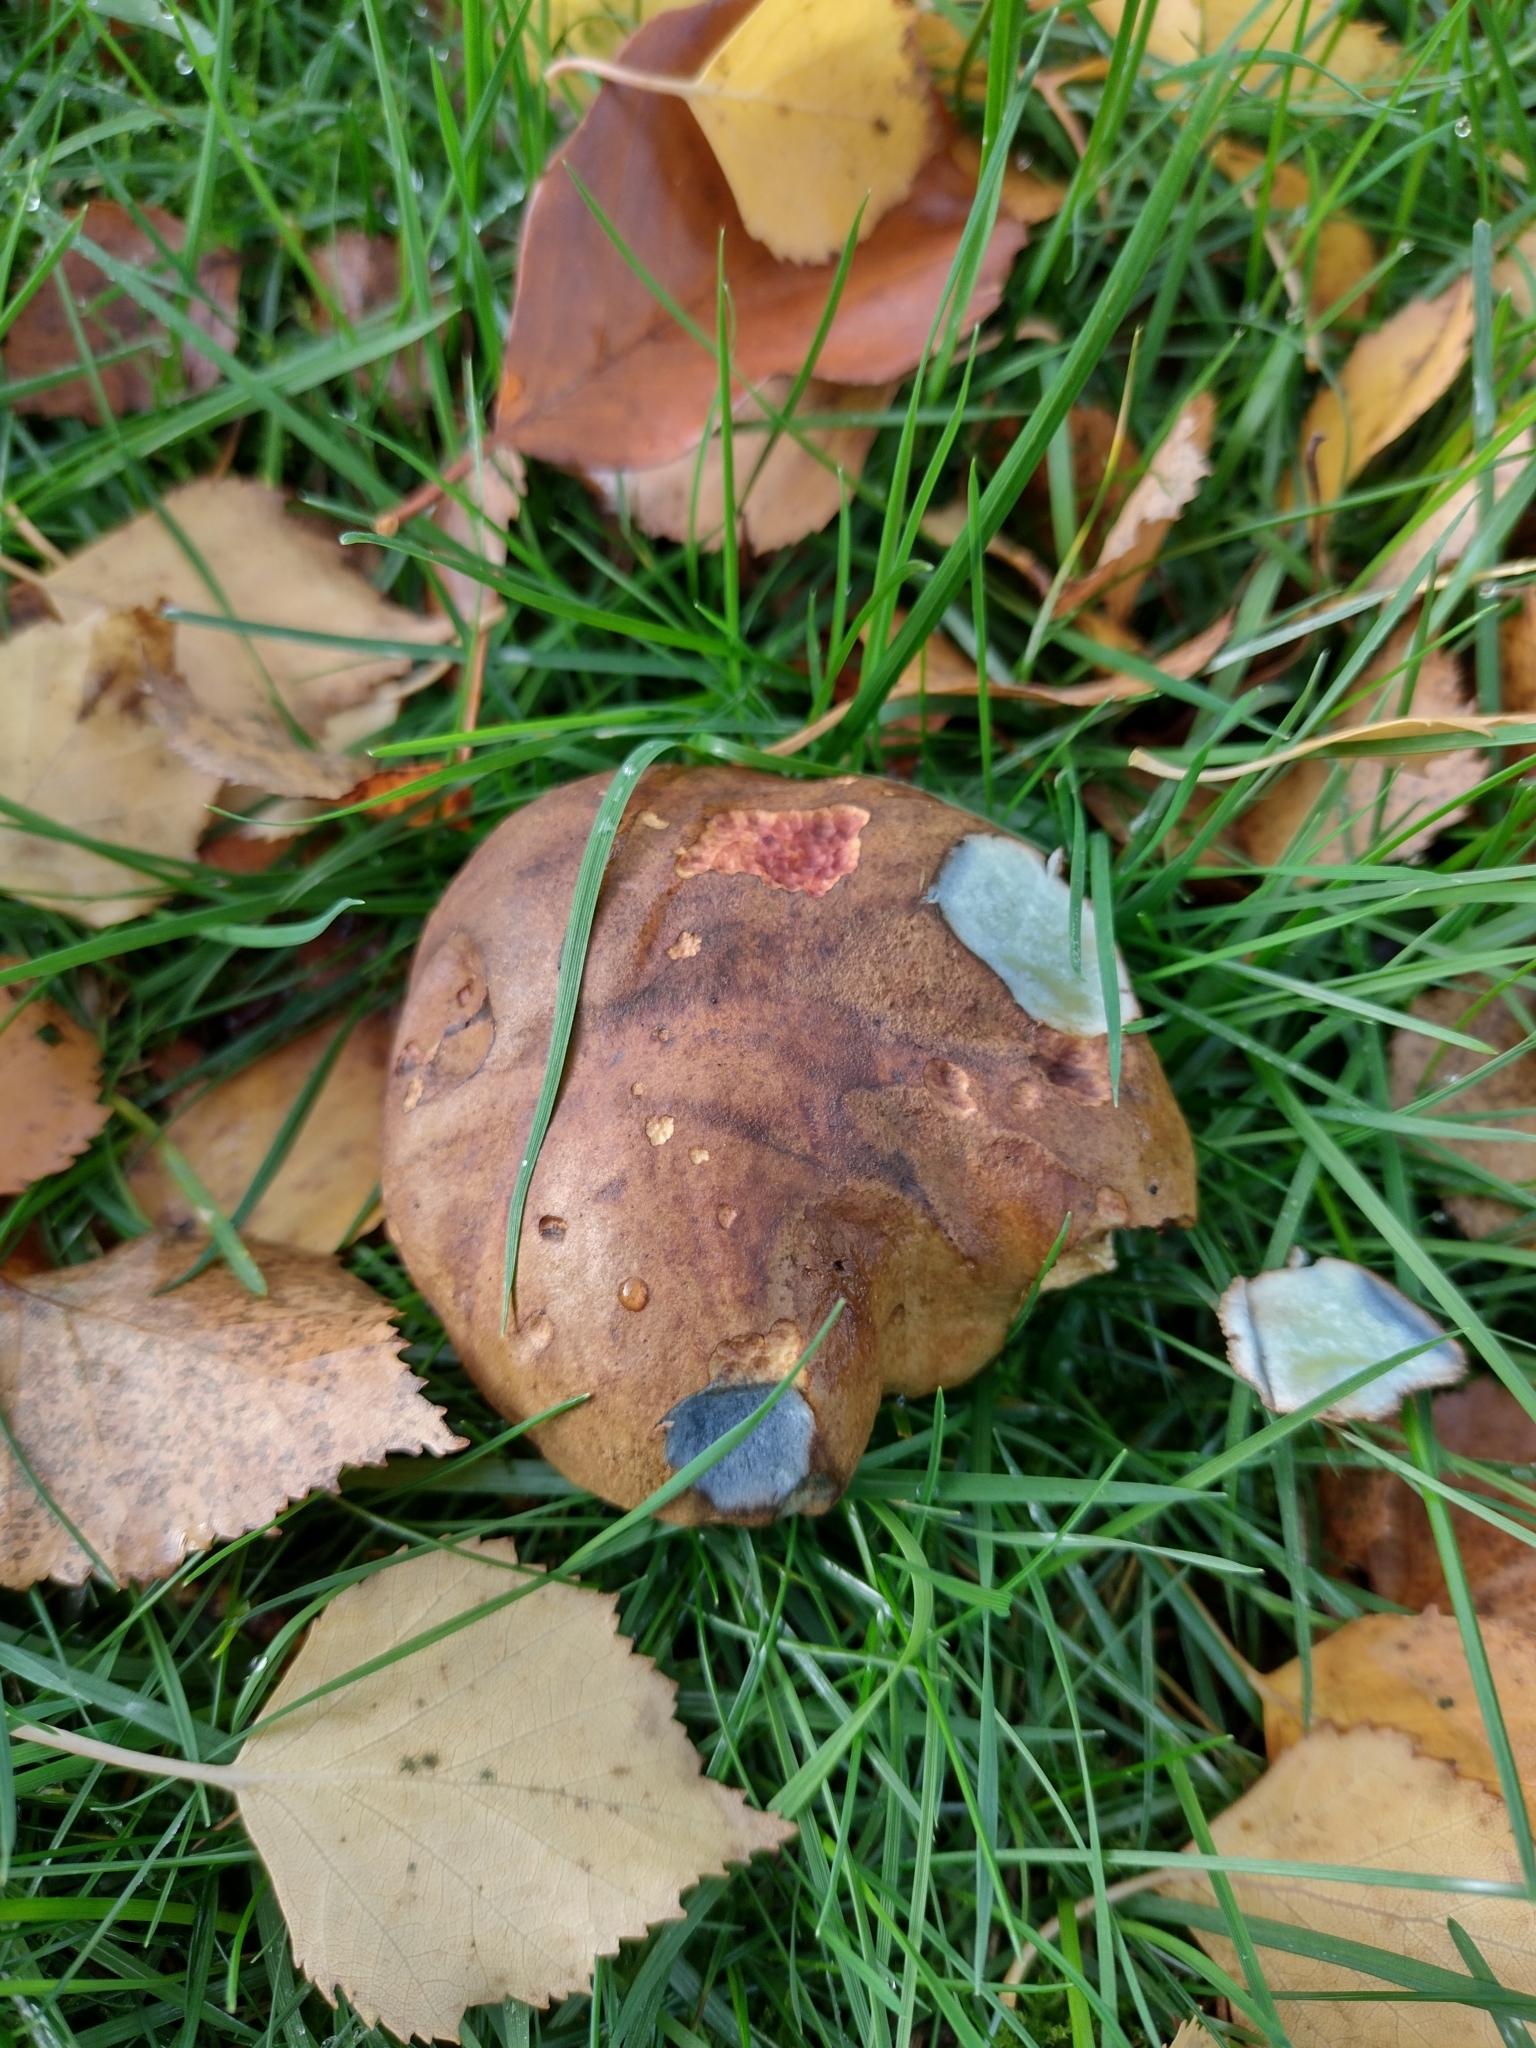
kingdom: Fungi
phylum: Basidiomycota
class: Agaricomycetes
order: Boletales
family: Boletaceae
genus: Cyanoboletus
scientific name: Cyanoboletus pulverulentus
